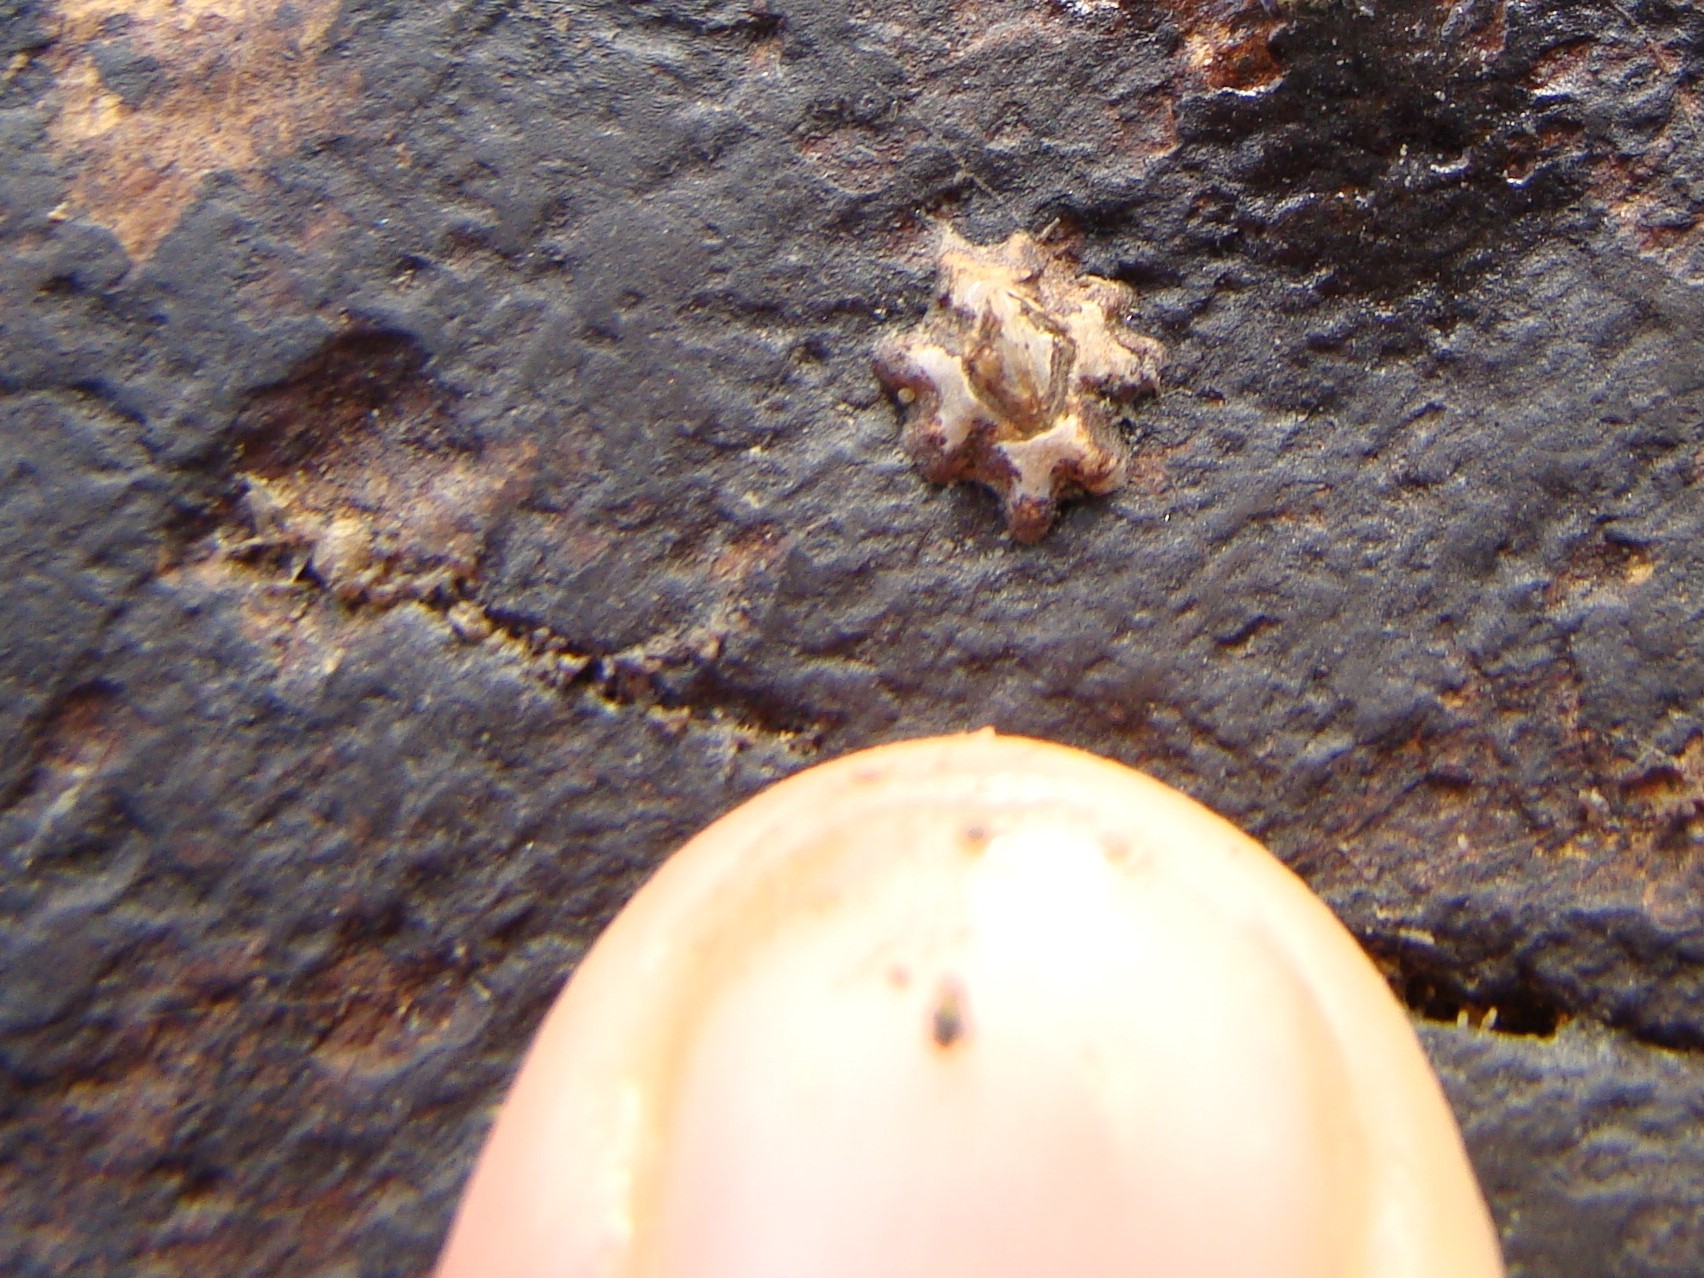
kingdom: Animalia
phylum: Arthropoda
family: Elminiidae
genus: Austrominius
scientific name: Austrominius modestus
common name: Australasian barnacle
